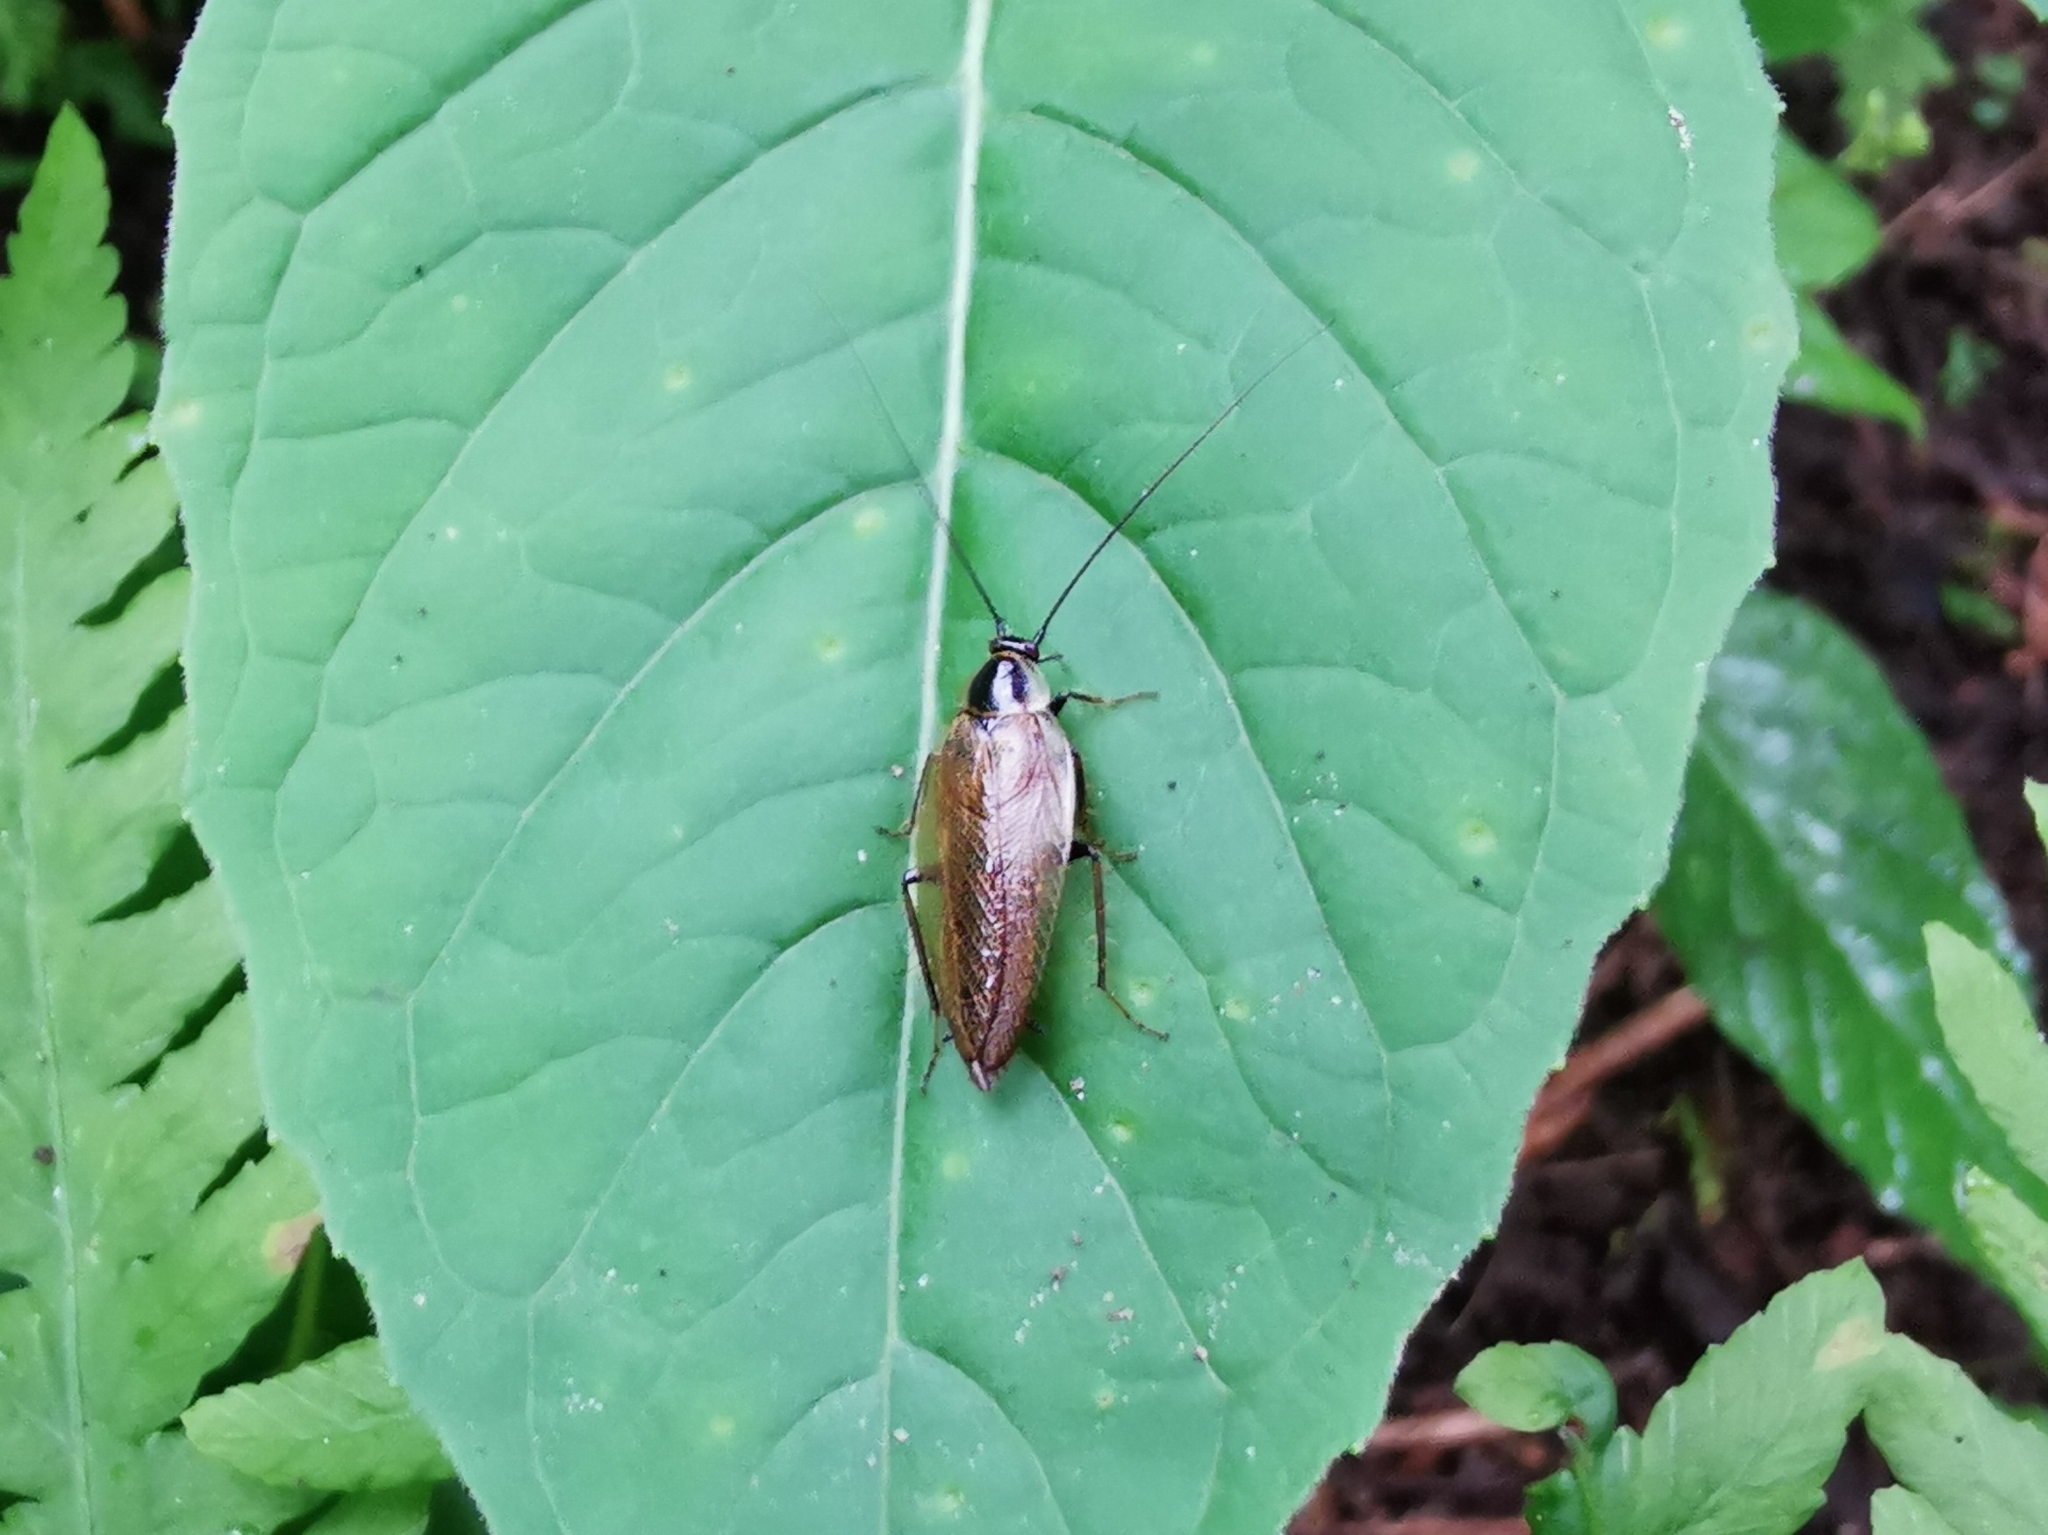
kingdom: Animalia
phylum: Arthropoda
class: Insecta
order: Blattodea
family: Ectobiidae
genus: Ectobius
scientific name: Ectobius lapponicus
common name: Dusky cockroach
